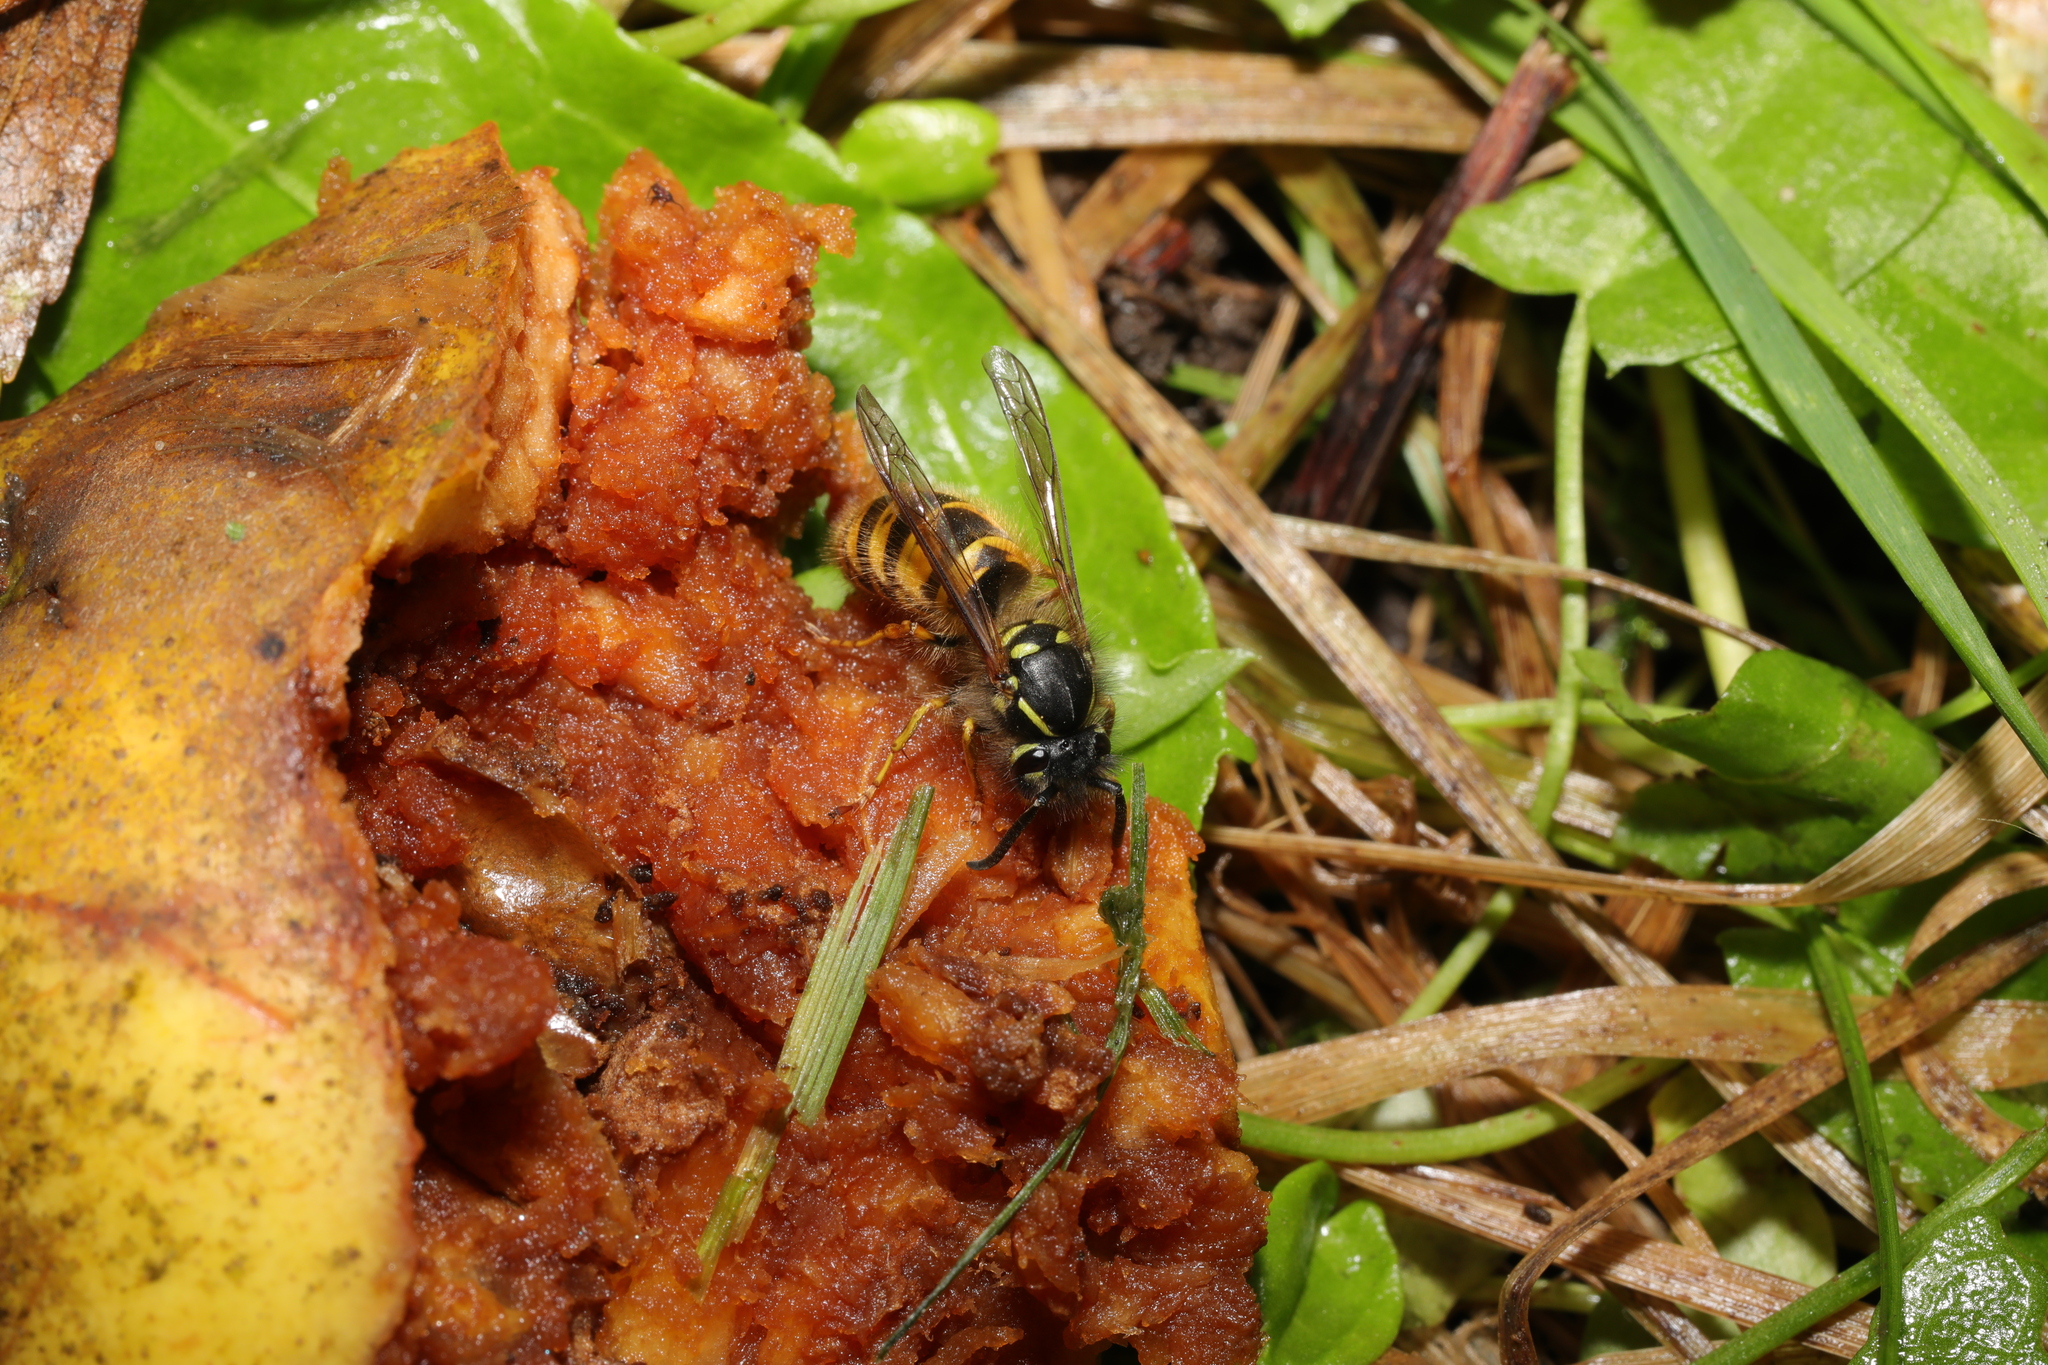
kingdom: Animalia
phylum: Arthropoda
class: Insecta
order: Hymenoptera
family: Vespidae
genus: Vespula
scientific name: Vespula vulgaris
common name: Common wasp
